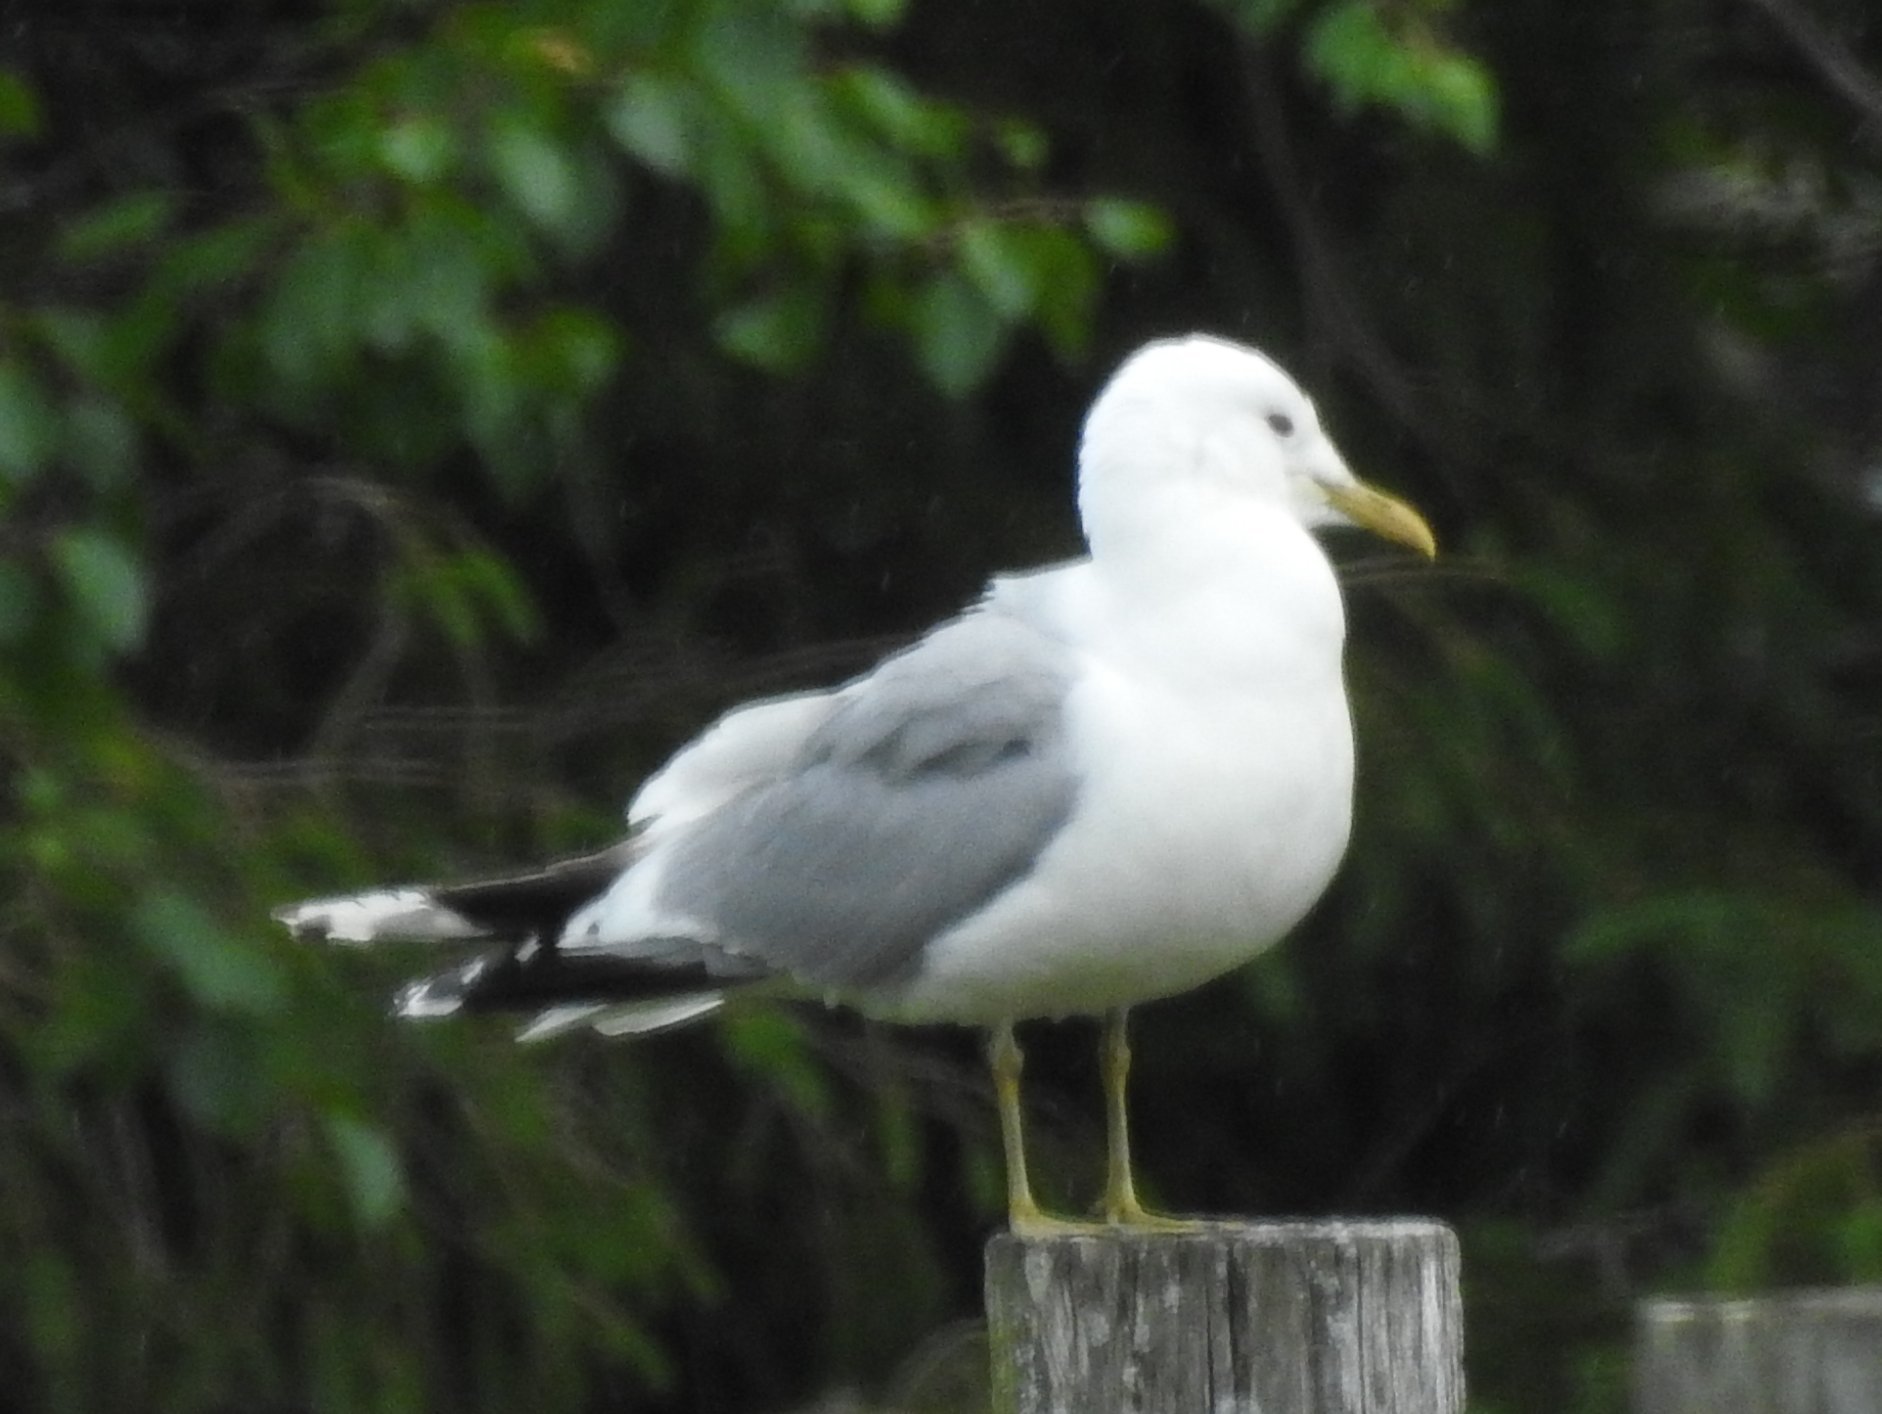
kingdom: Animalia
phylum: Chordata
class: Aves
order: Charadriiformes
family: Laridae
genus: Larus
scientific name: Larus canus
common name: Mew gull
